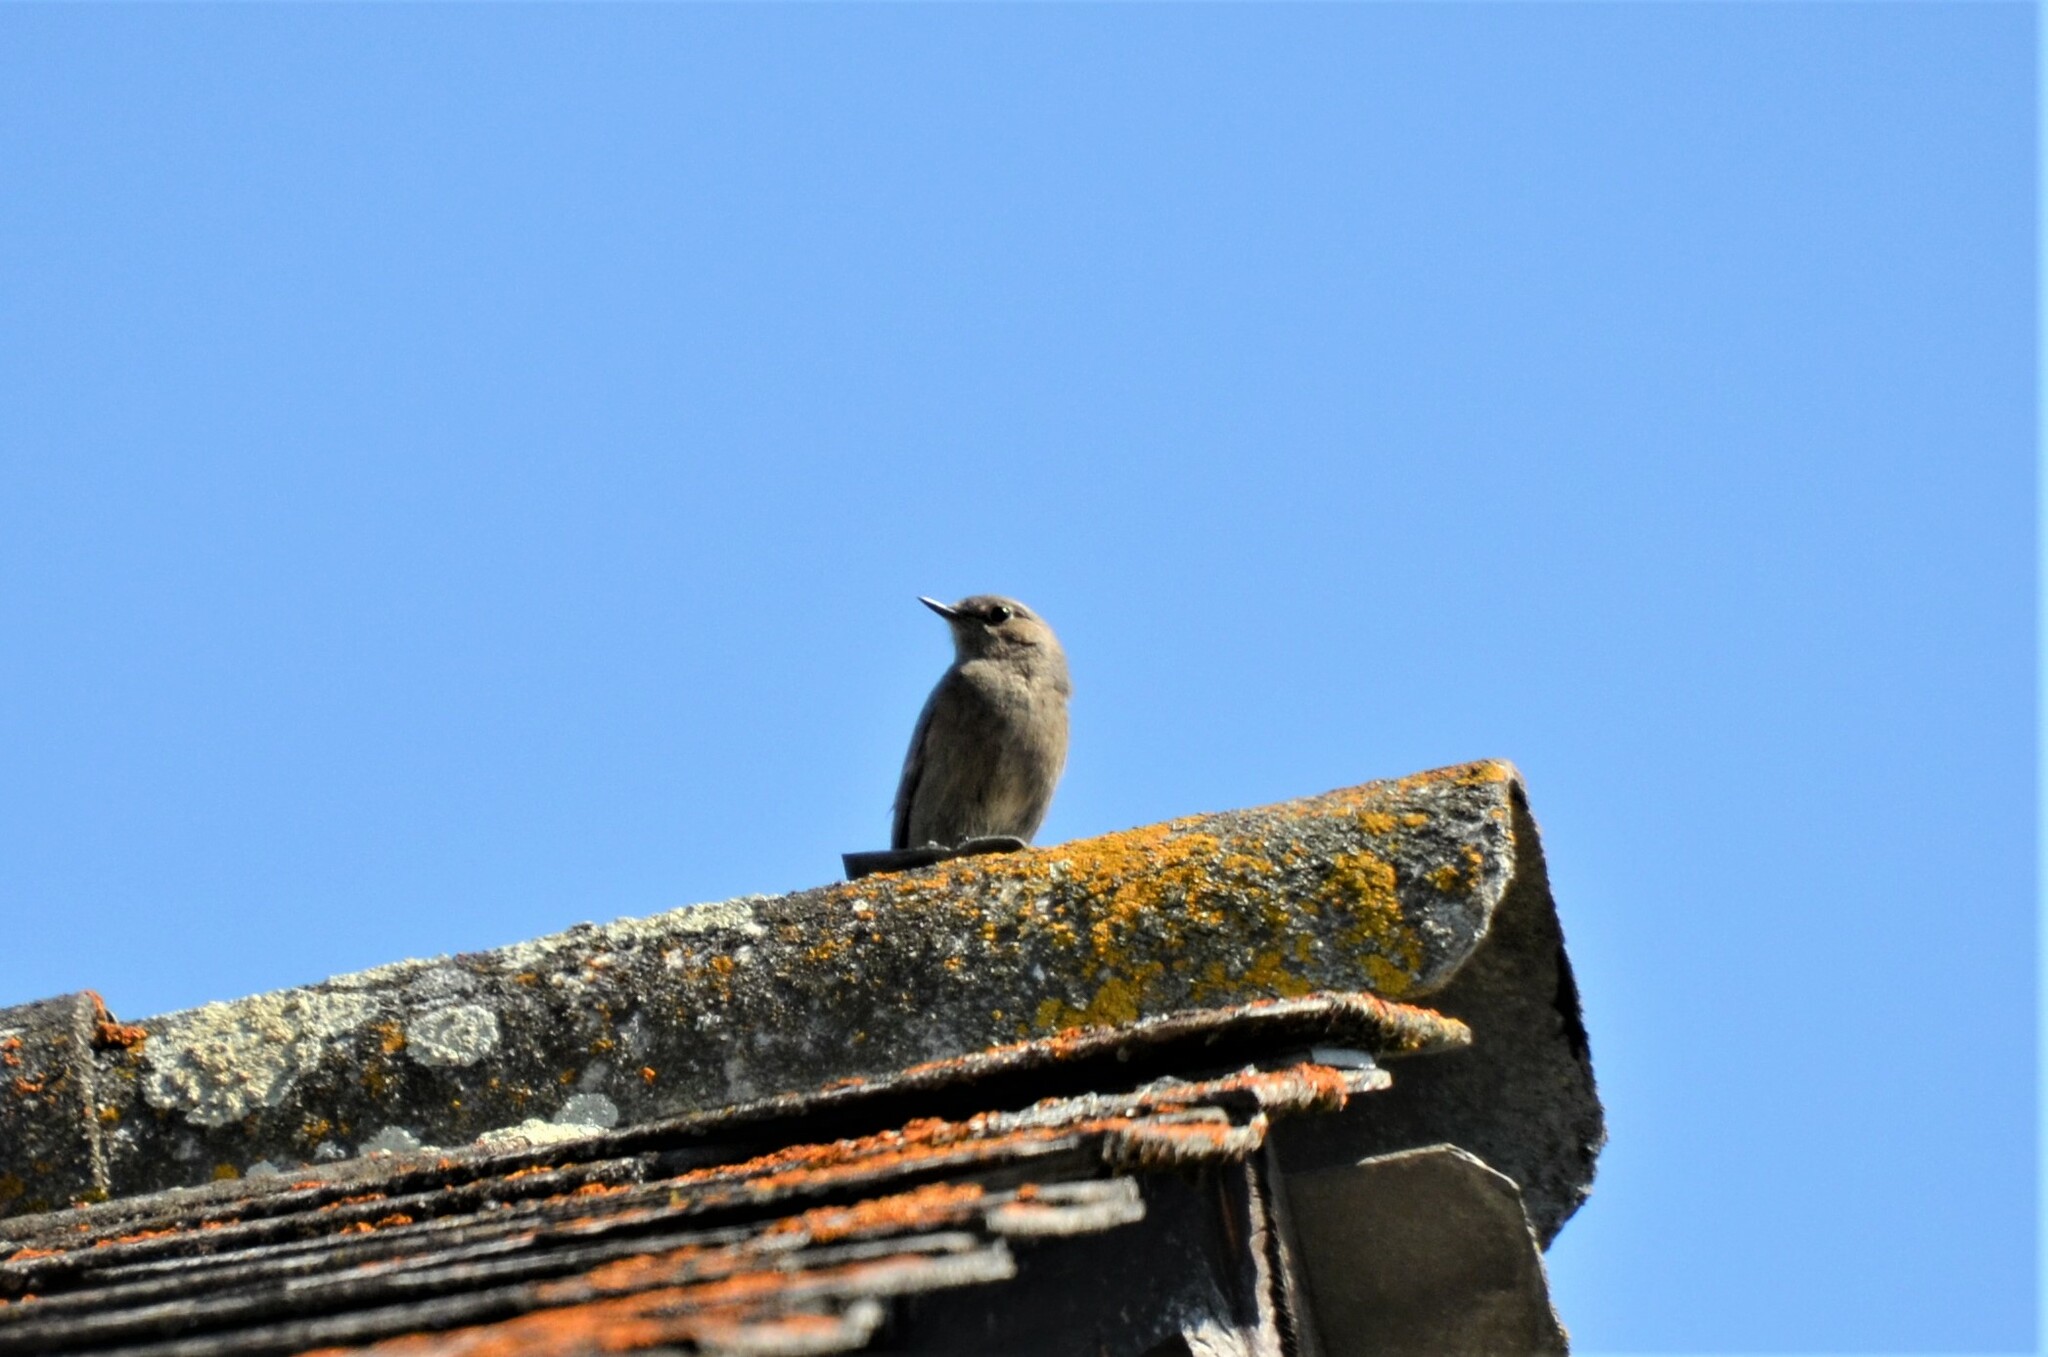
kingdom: Animalia
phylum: Chordata
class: Aves
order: Passeriformes
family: Muscicapidae
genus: Phoenicurus
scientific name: Phoenicurus ochruros
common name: Black redstart
